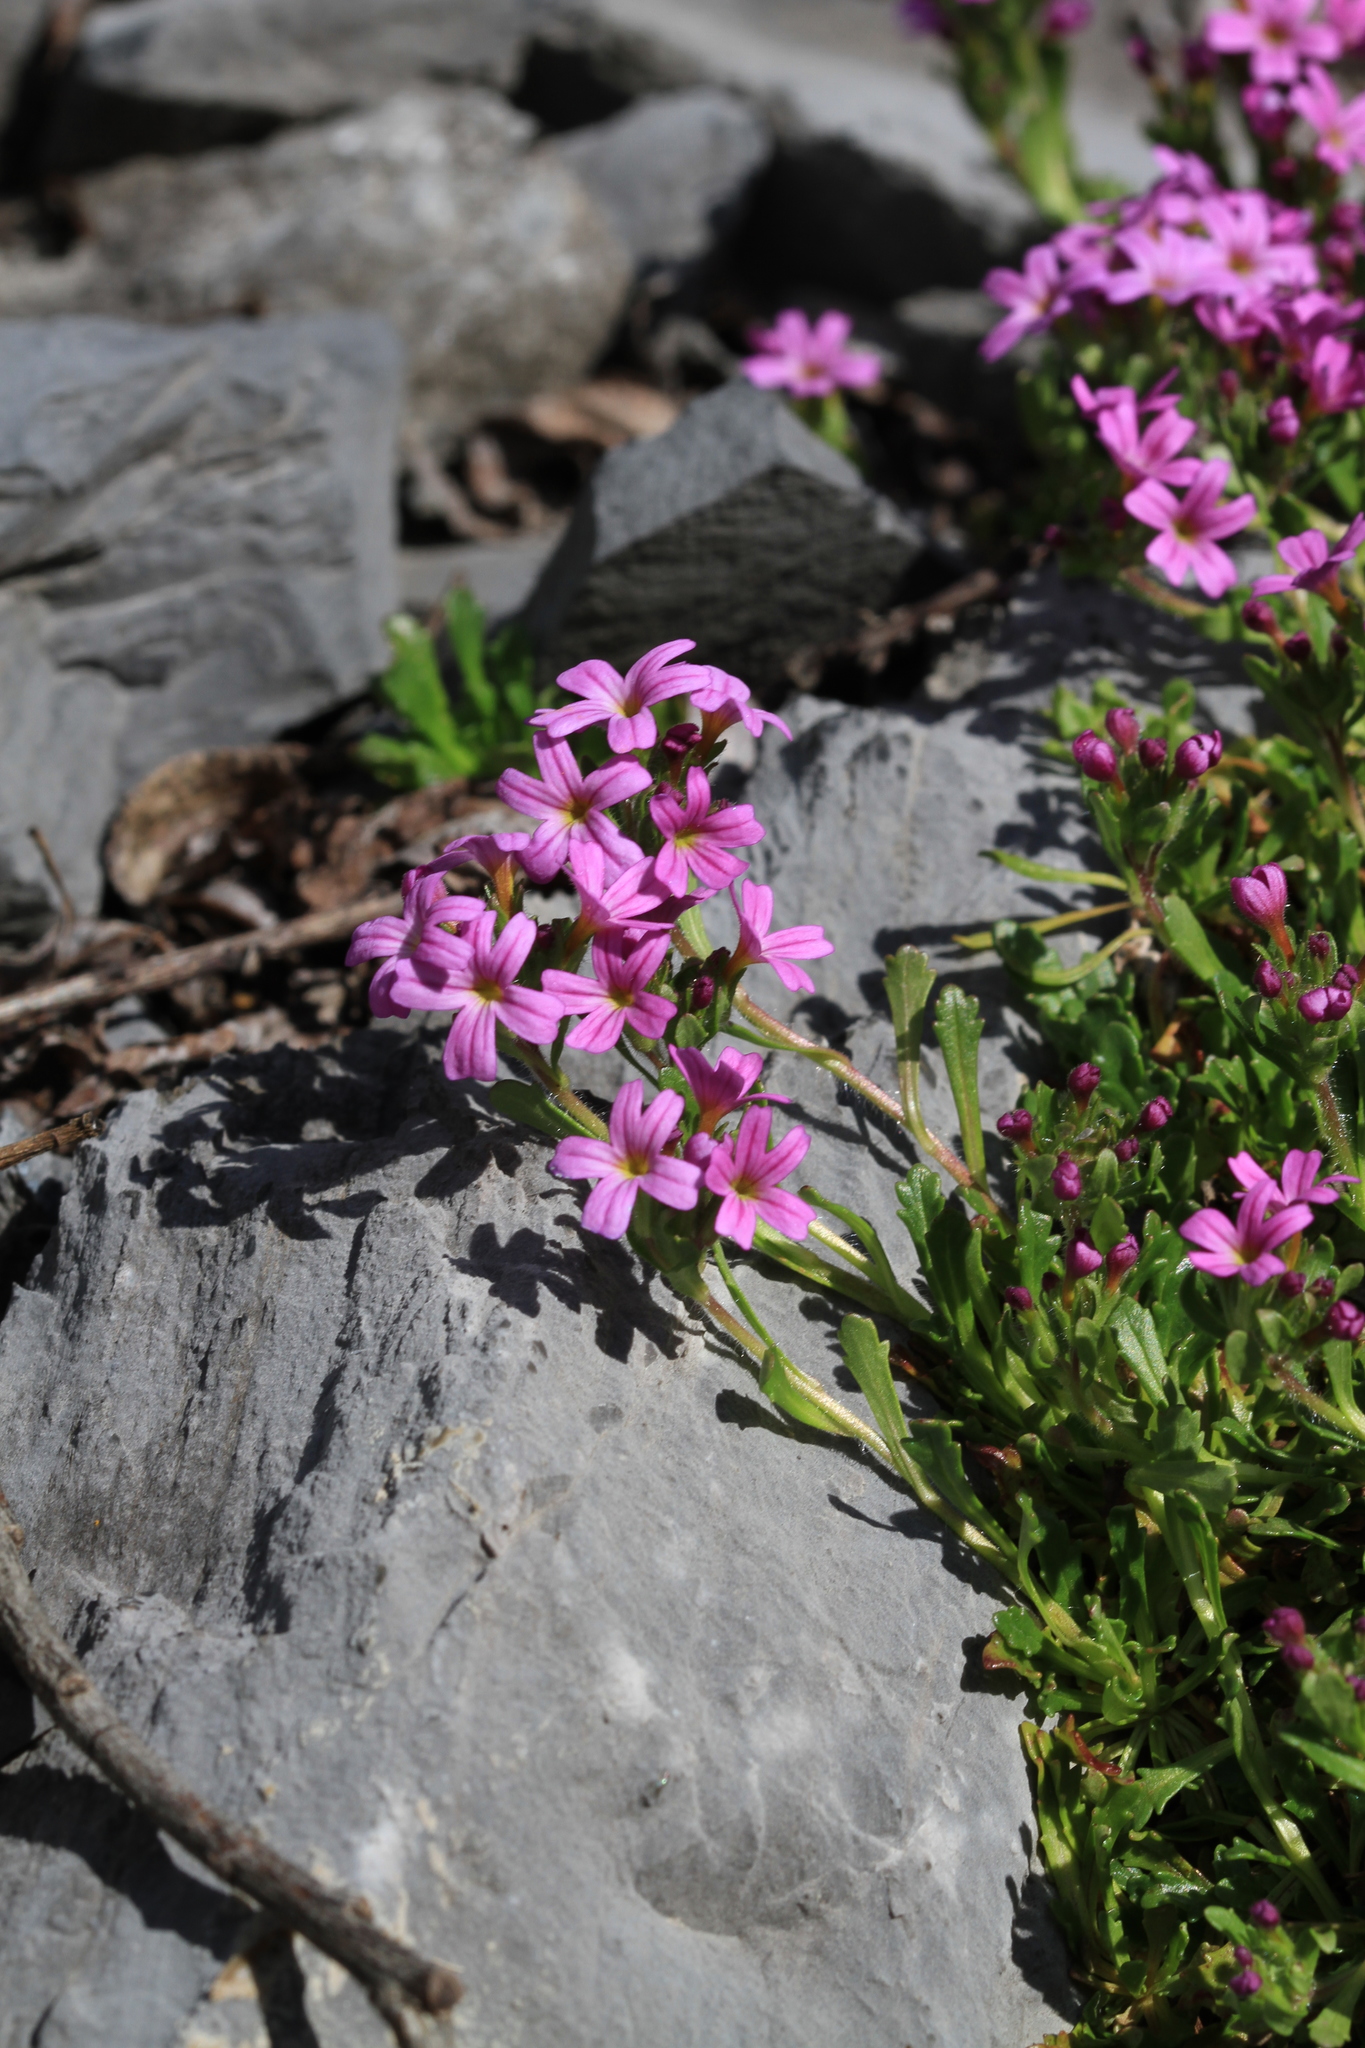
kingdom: Plantae
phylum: Tracheophyta
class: Magnoliopsida
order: Lamiales
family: Plantaginaceae
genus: Erinus
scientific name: Erinus alpinus
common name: Fairy foxglove
